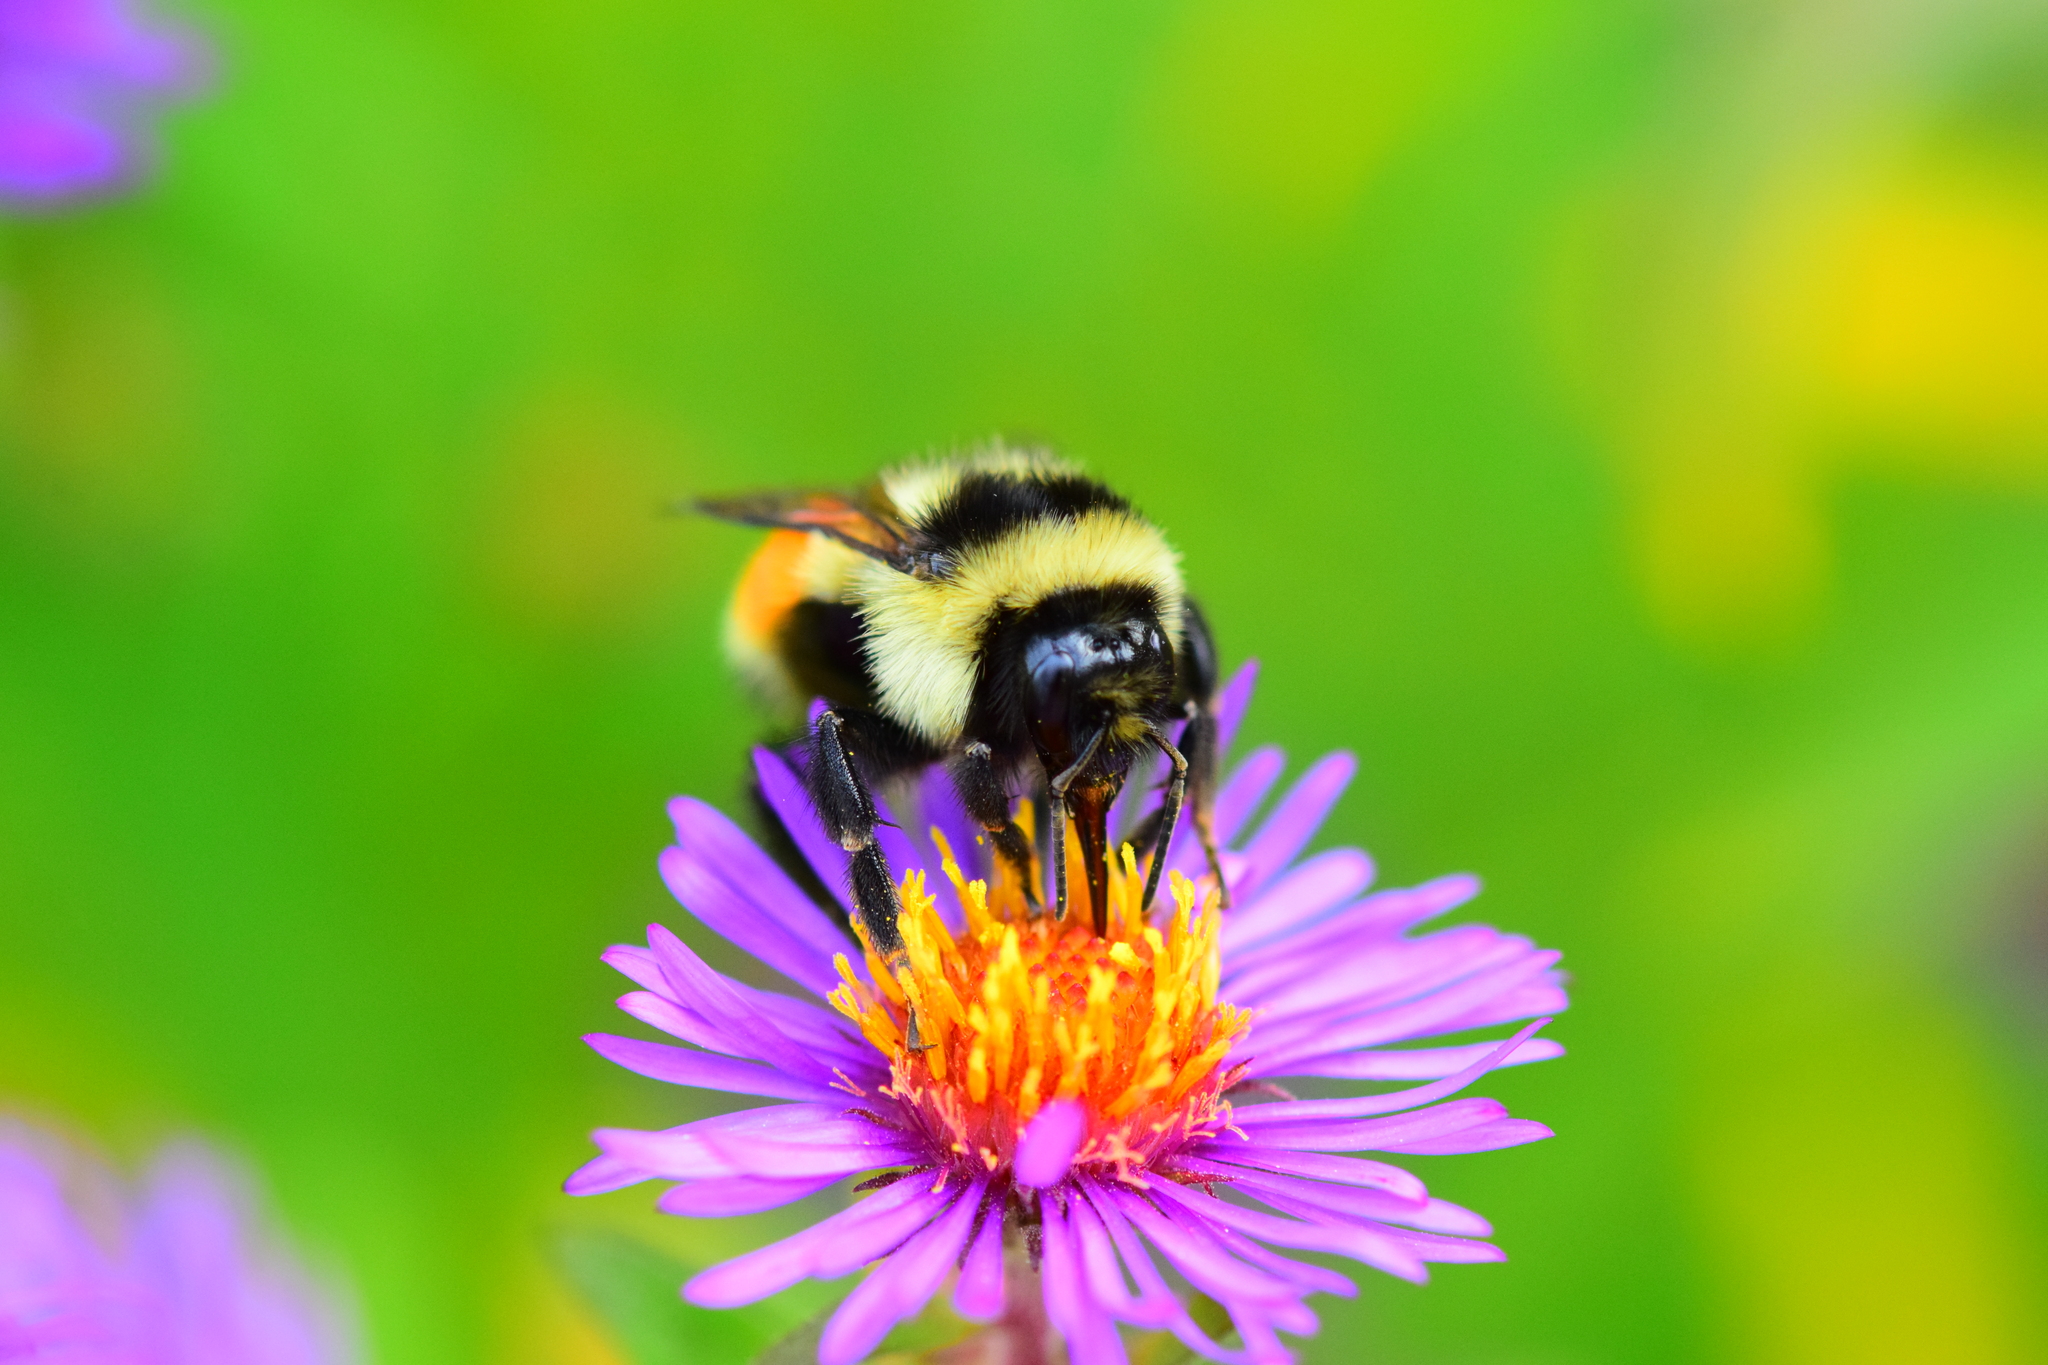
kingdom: Animalia
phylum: Arthropoda
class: Insecta
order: Hymenoptera
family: Apidae
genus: Bombus
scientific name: Bombus ternarius
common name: Tri-colored bumble bee
